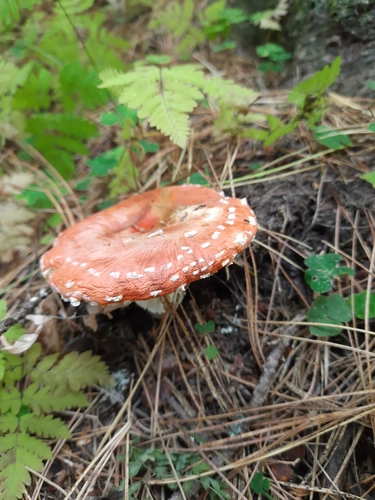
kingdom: Fungi
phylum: Basidiomycota
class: Agaricomycetes
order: Agaricales
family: Amanitaceae
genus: Amanita
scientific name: Amanita muscaria
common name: Fly agaric
